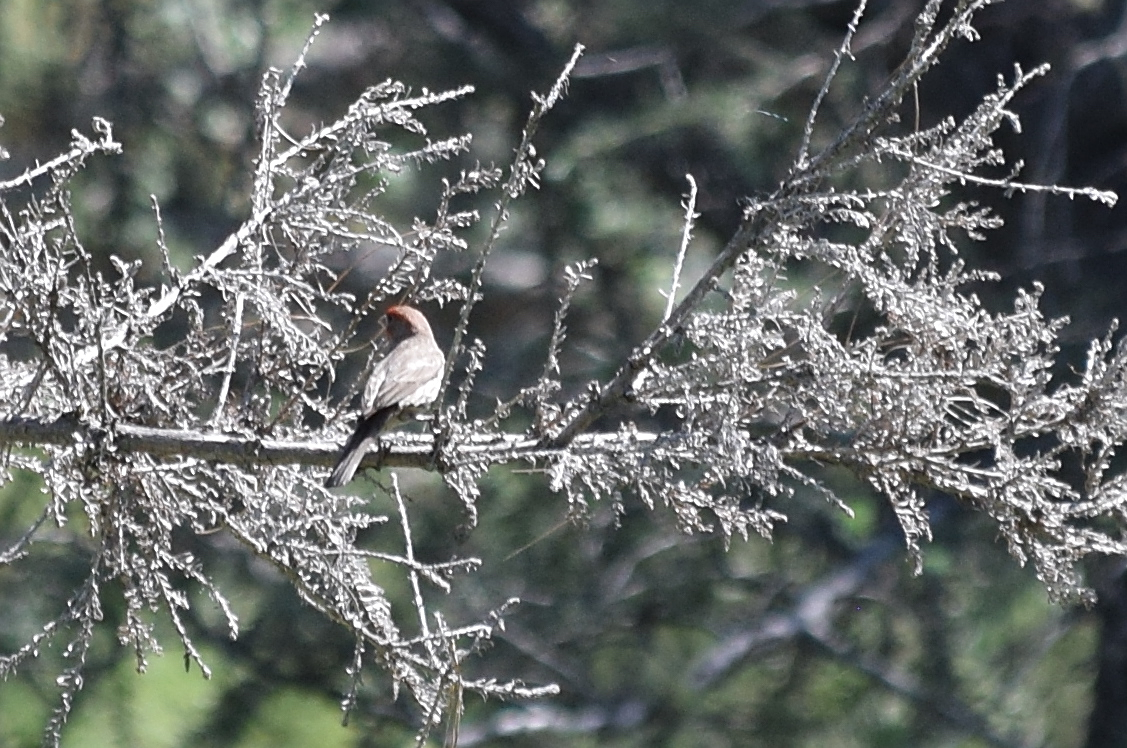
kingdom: Animalia
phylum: Chordata
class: Aves
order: Passeriformes
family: Fringillidae
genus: Haemorhous
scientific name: Haemorhous mexicanus
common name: House finch
